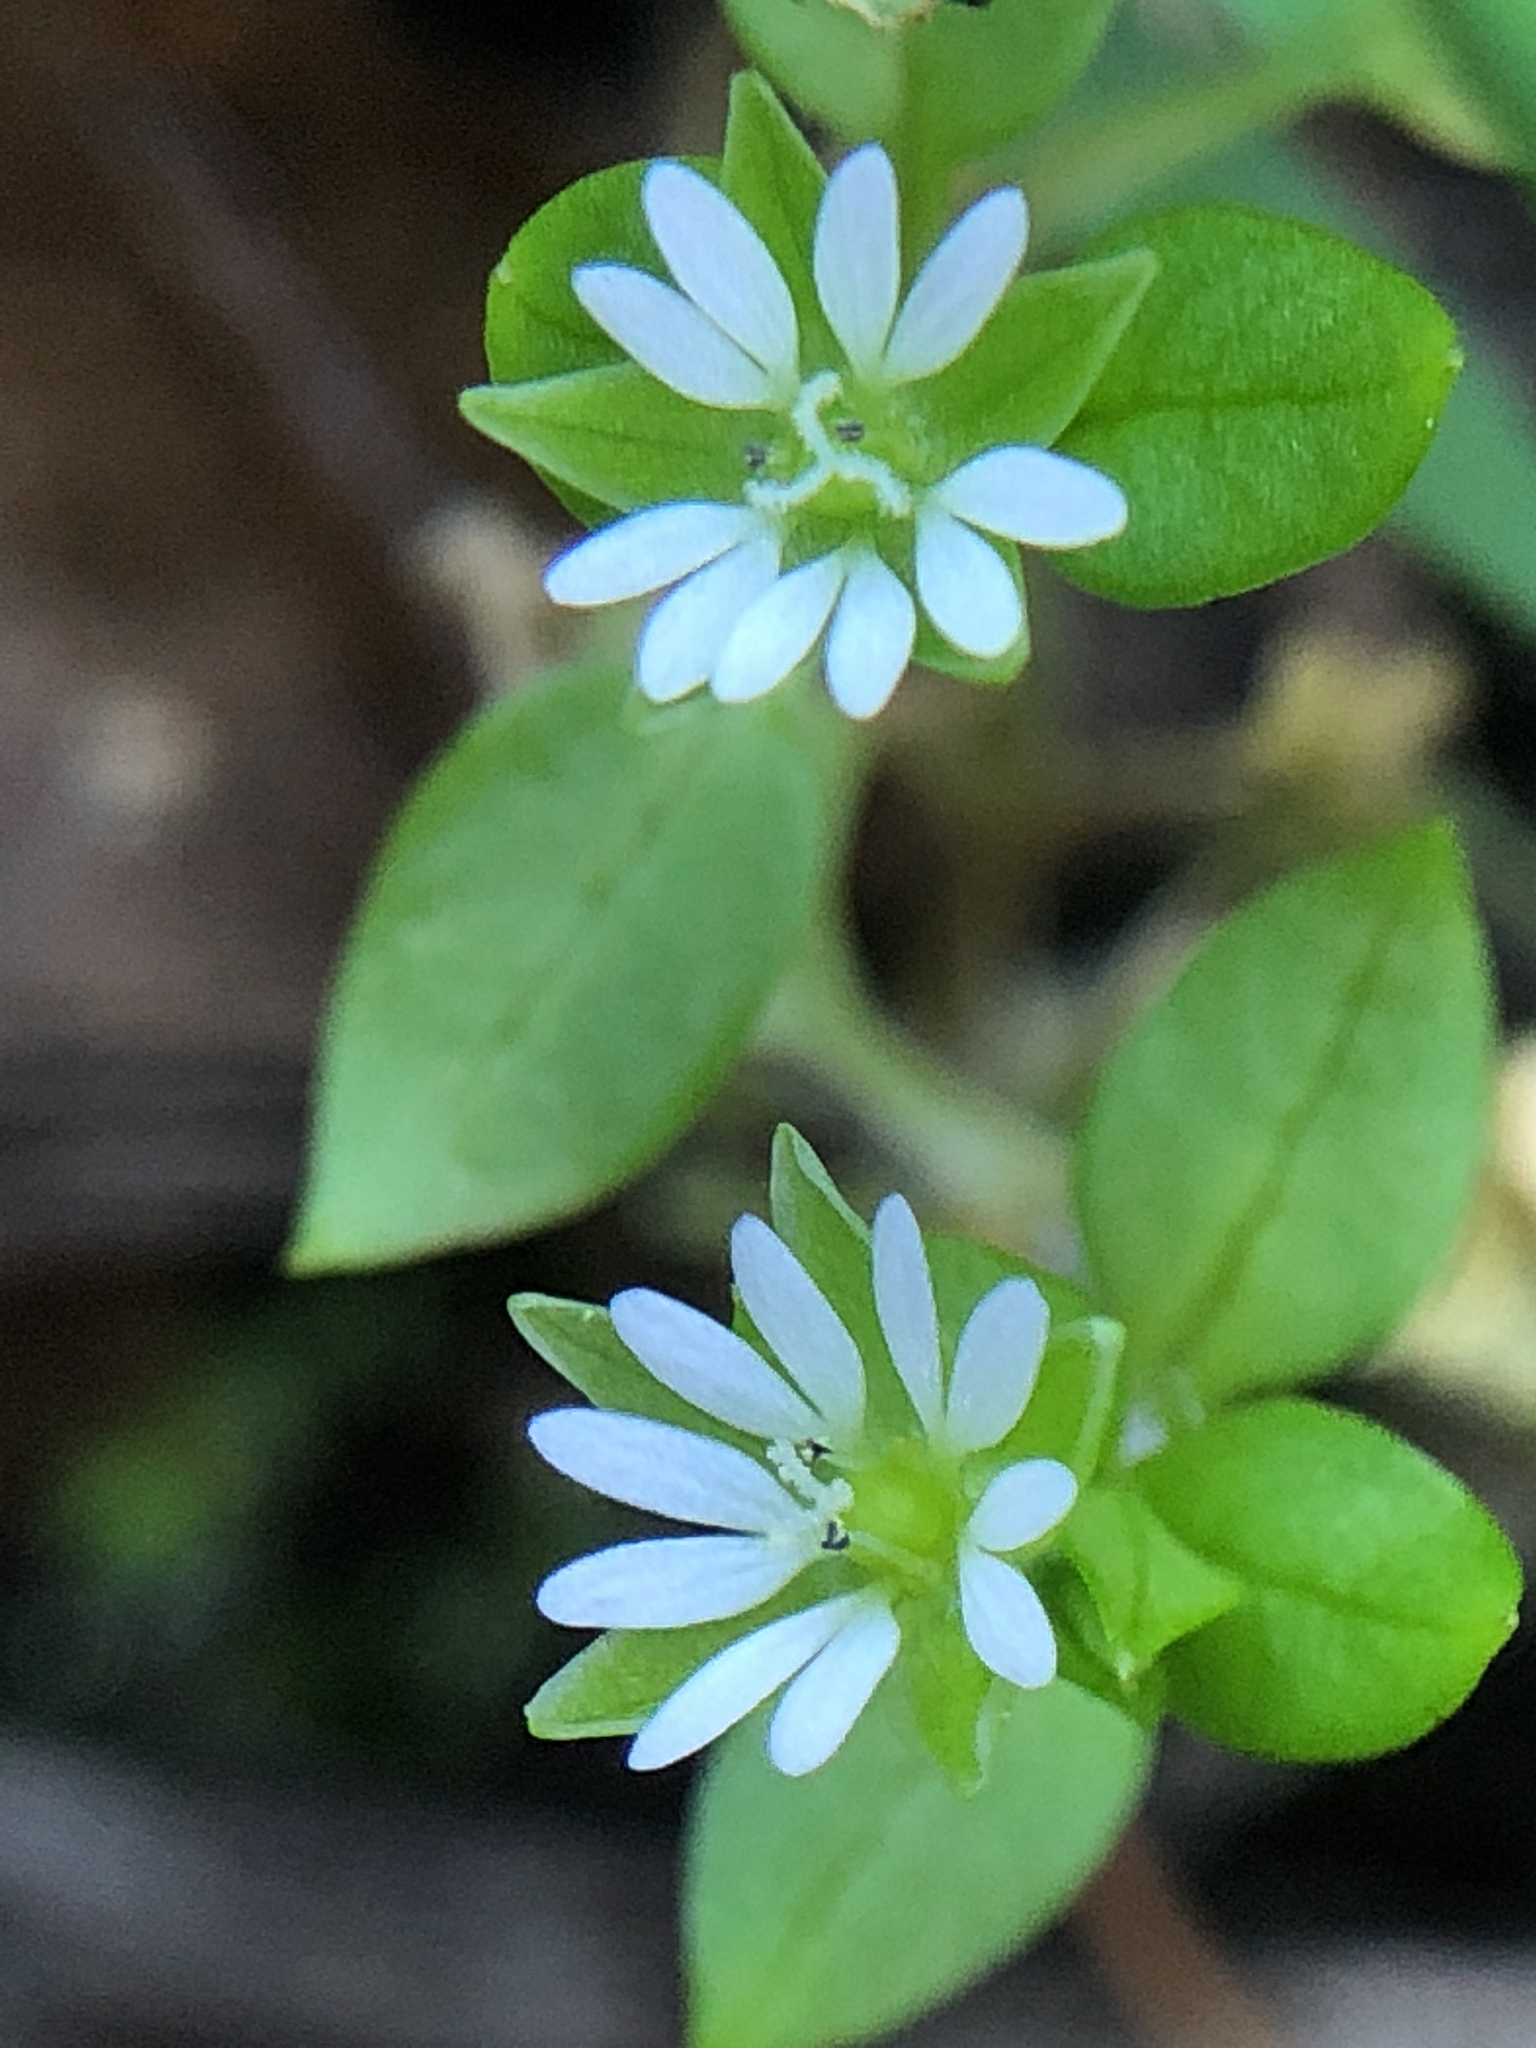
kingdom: Plantae
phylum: Tracheophyta
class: Magnoliopsida
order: Caryophyllales
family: Caryophyllaceae
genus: Stellaria
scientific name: Stellaria media
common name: Common chickweed
